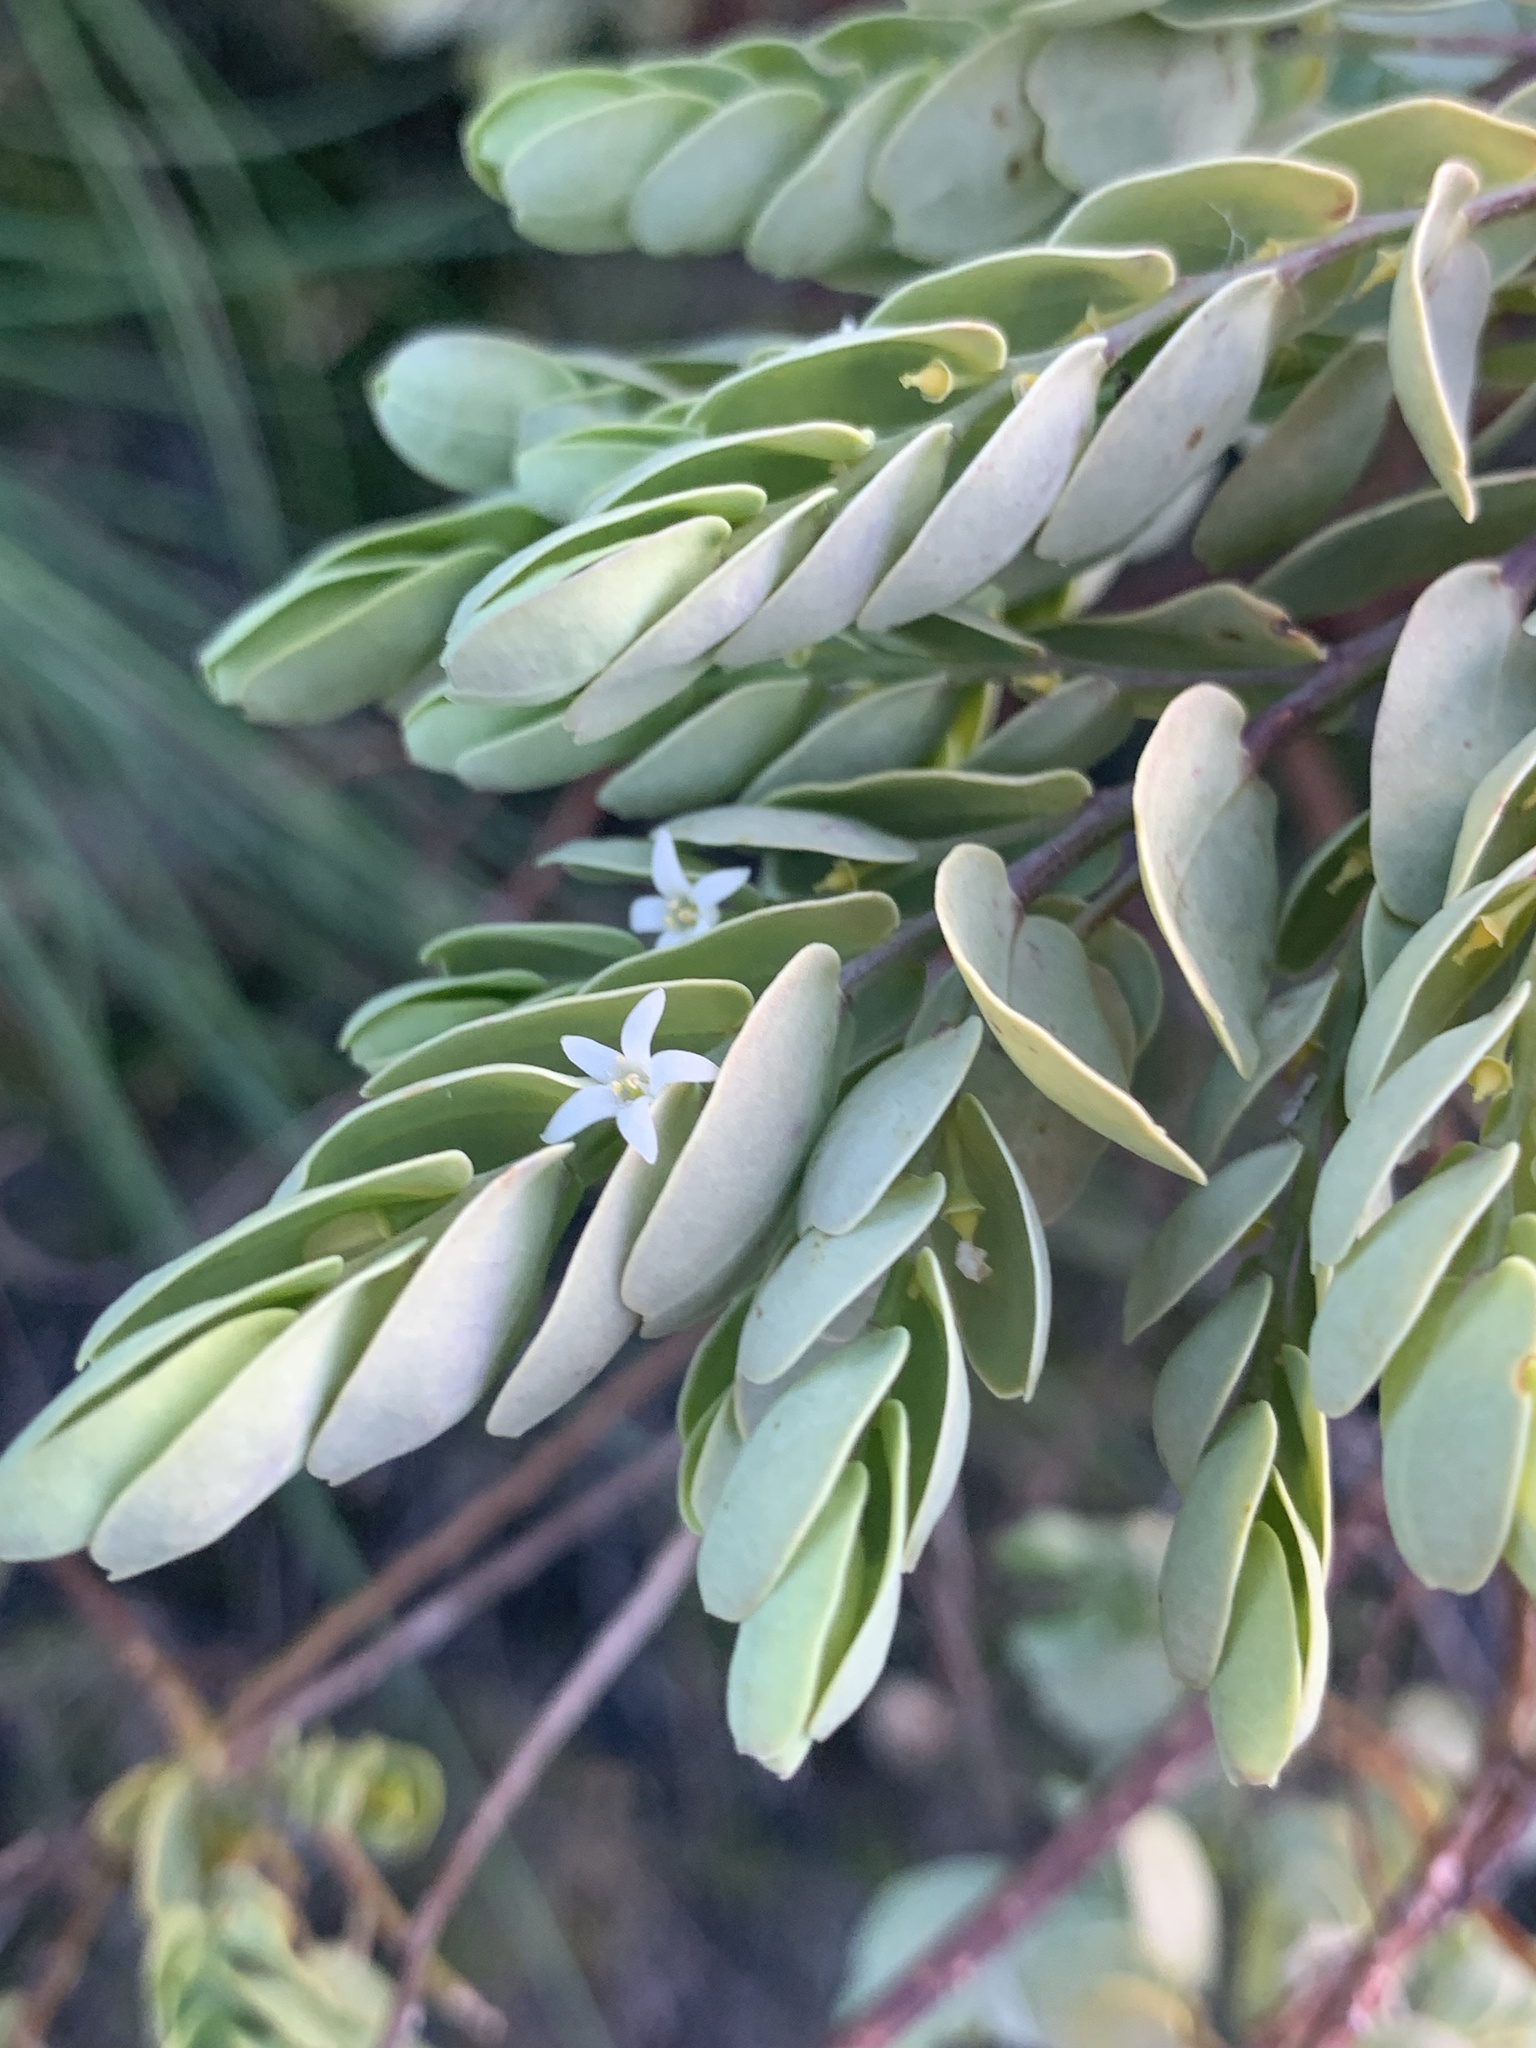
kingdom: Plantae
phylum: Tracheophyta
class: Magnoliopsida
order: Santalales
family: Olacaceae
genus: Olax
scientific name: Olax phyllanthi
